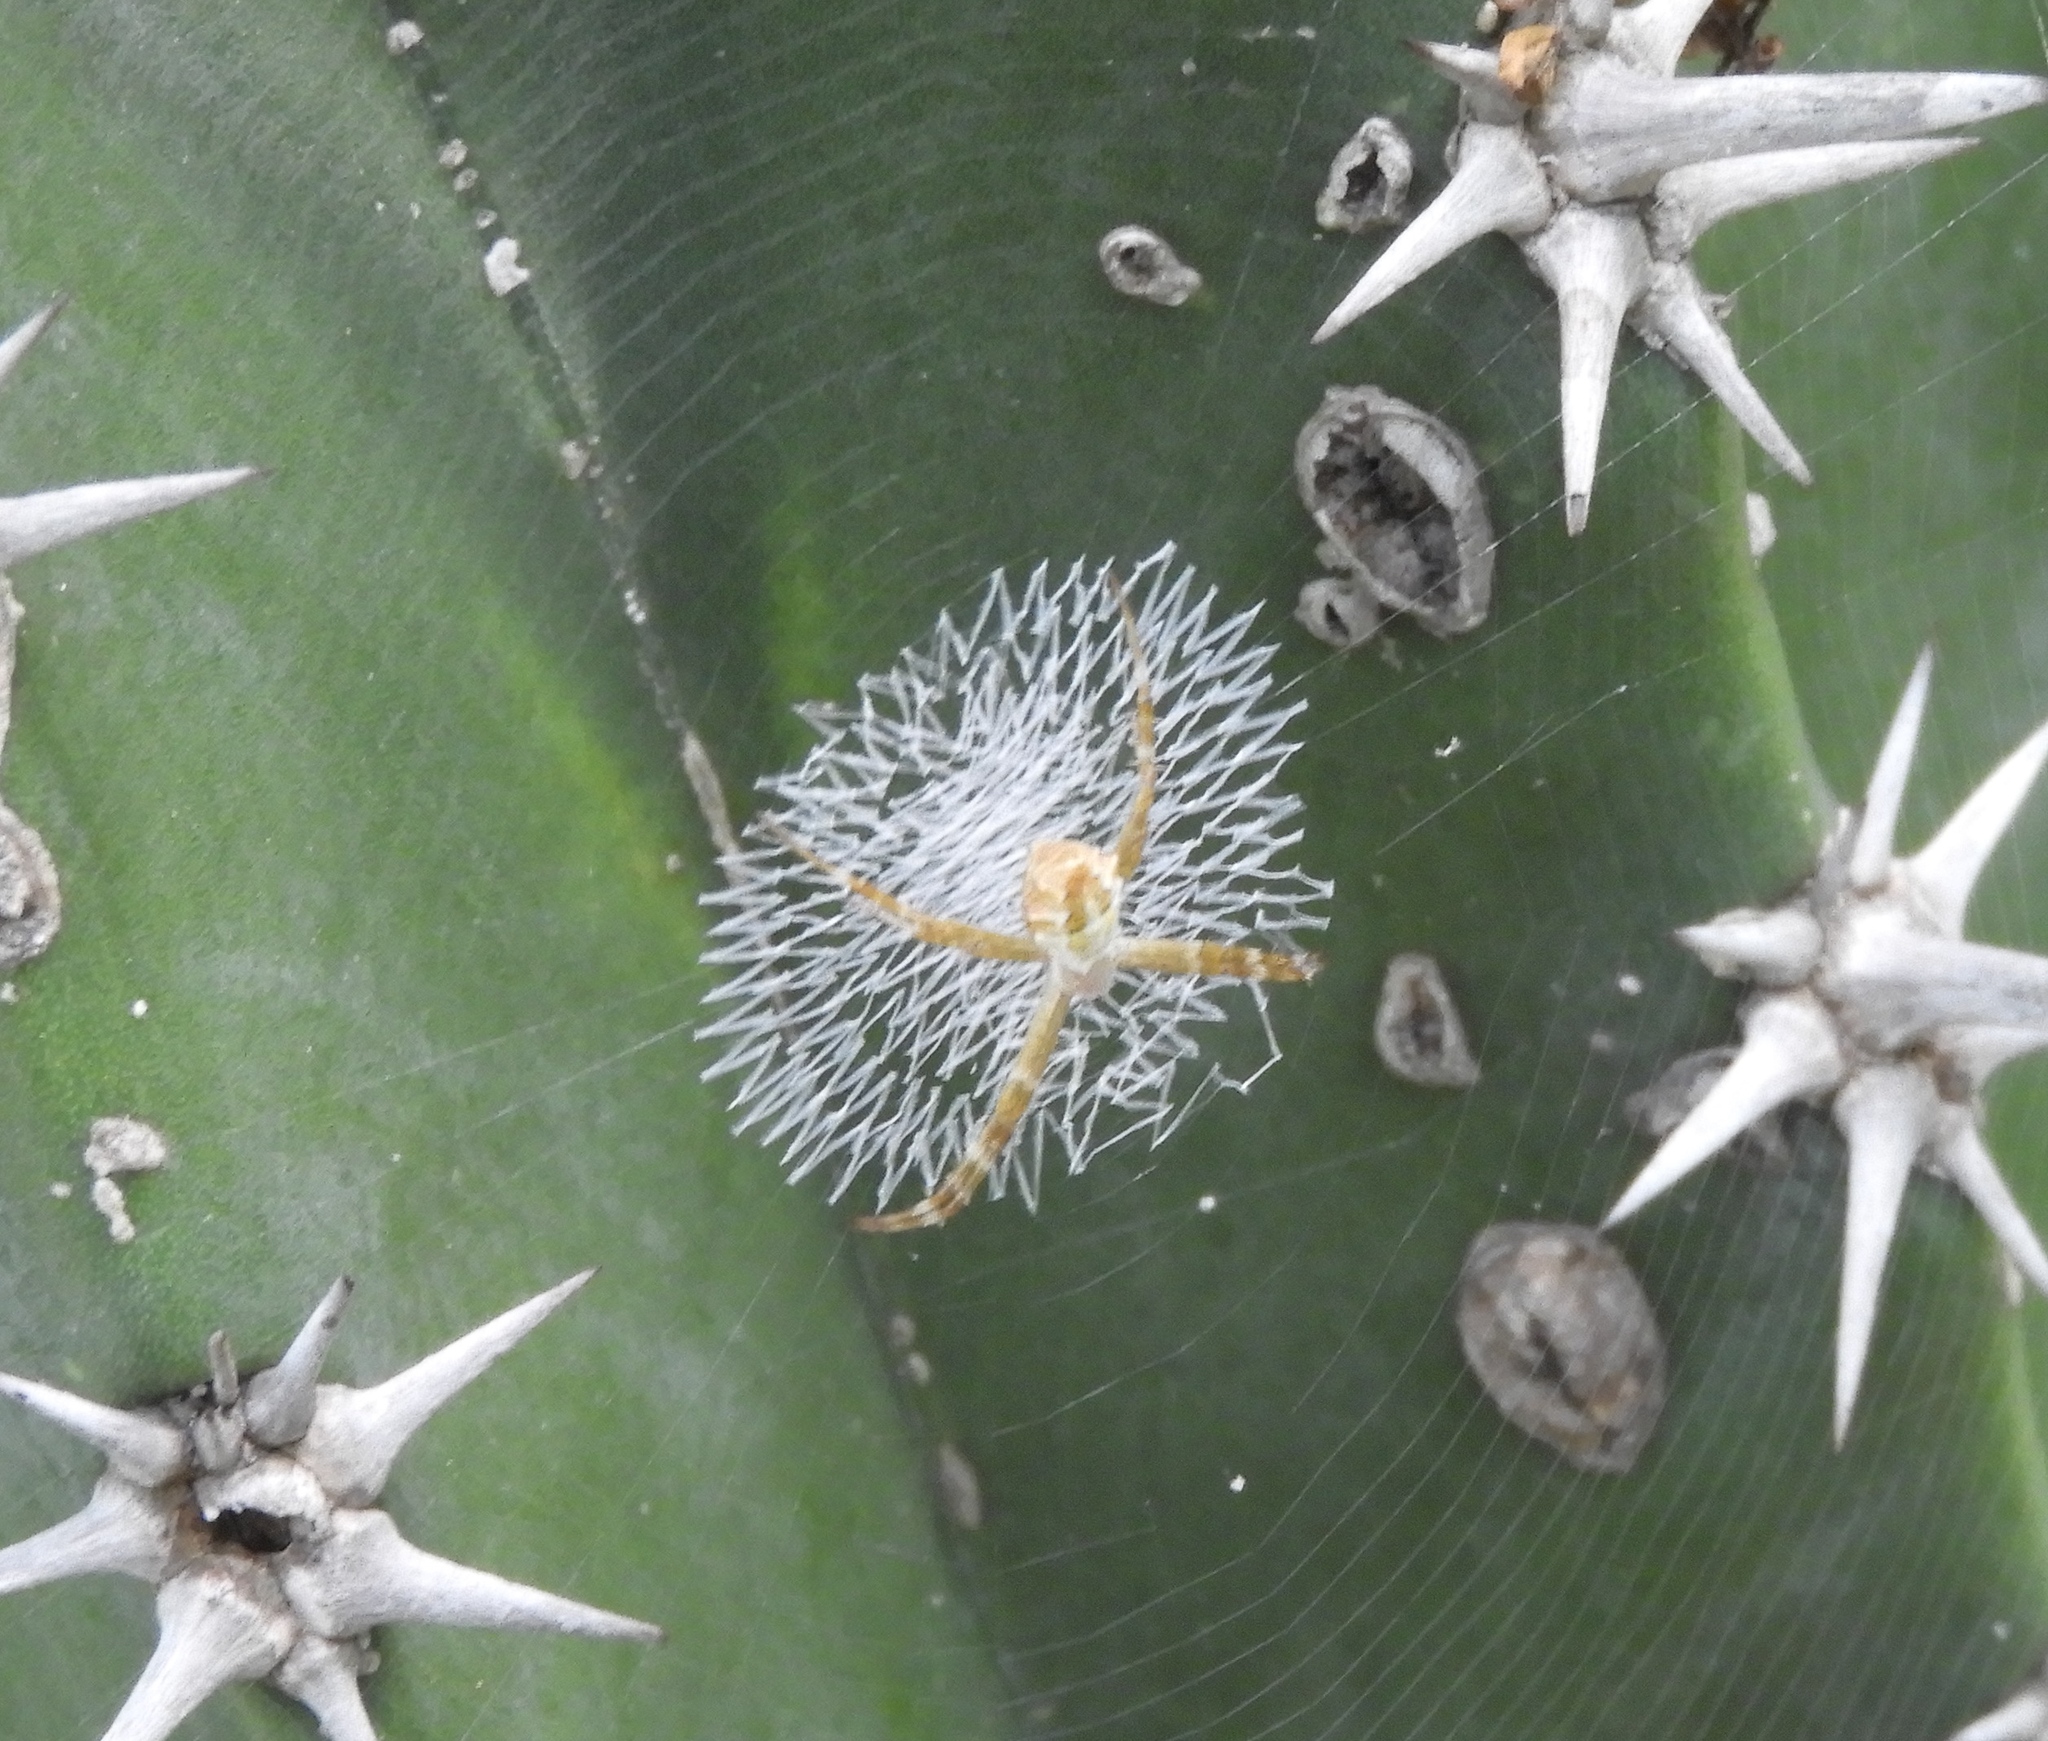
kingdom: Animalia
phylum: Arthropoda
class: Arachnida
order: Araneae
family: Araneidae
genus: Argiope
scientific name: Argiope argentata
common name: Orb weavers
